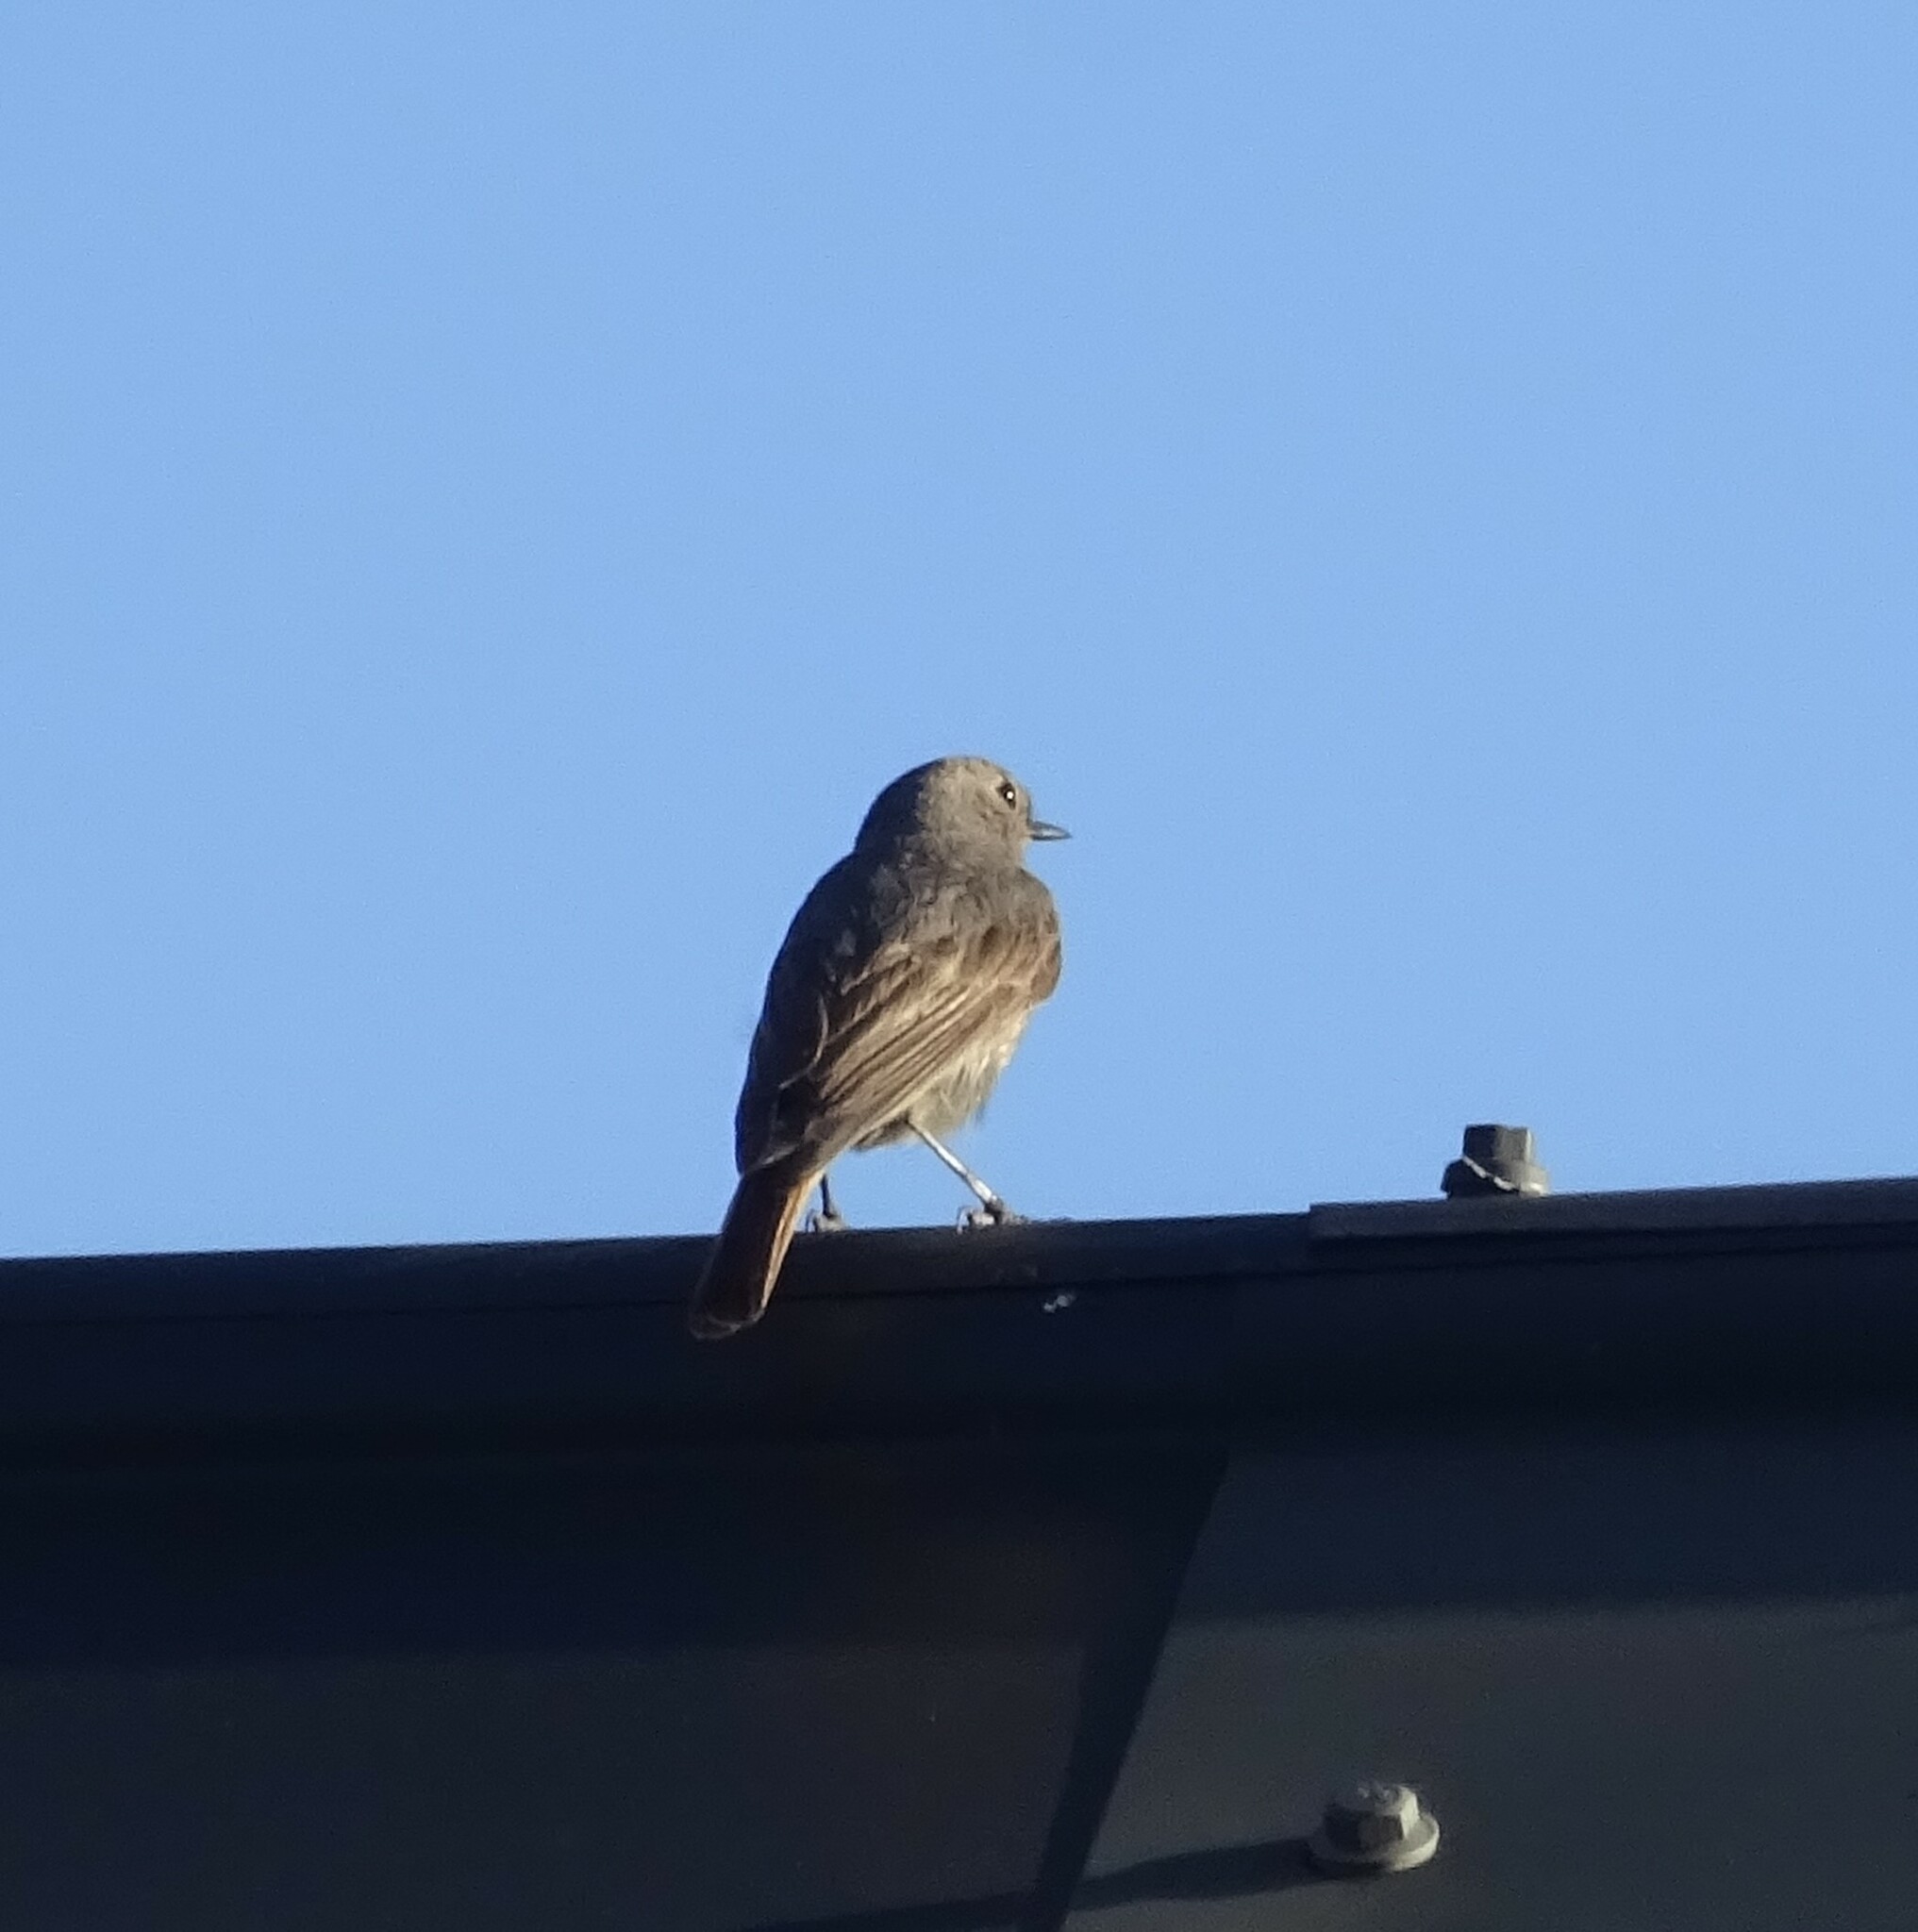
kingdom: Animalia
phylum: Chordata
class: Aves
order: Passeriformes
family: Muscicapidae
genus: Phoenicurus
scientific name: Phoenicurus ochruros
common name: Black redstart
